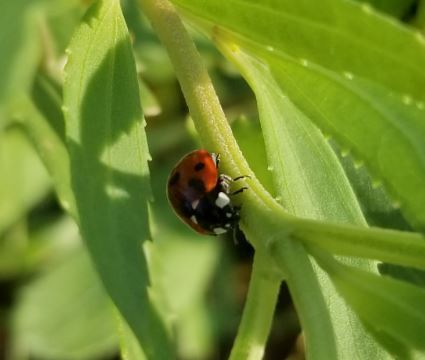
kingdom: Animalia
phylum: Arthropoda
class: Insecta
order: Coleoptera
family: Coccinellidae
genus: Coccinella
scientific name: Coccinella septempunctata
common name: Sevenspotted lady beetle
